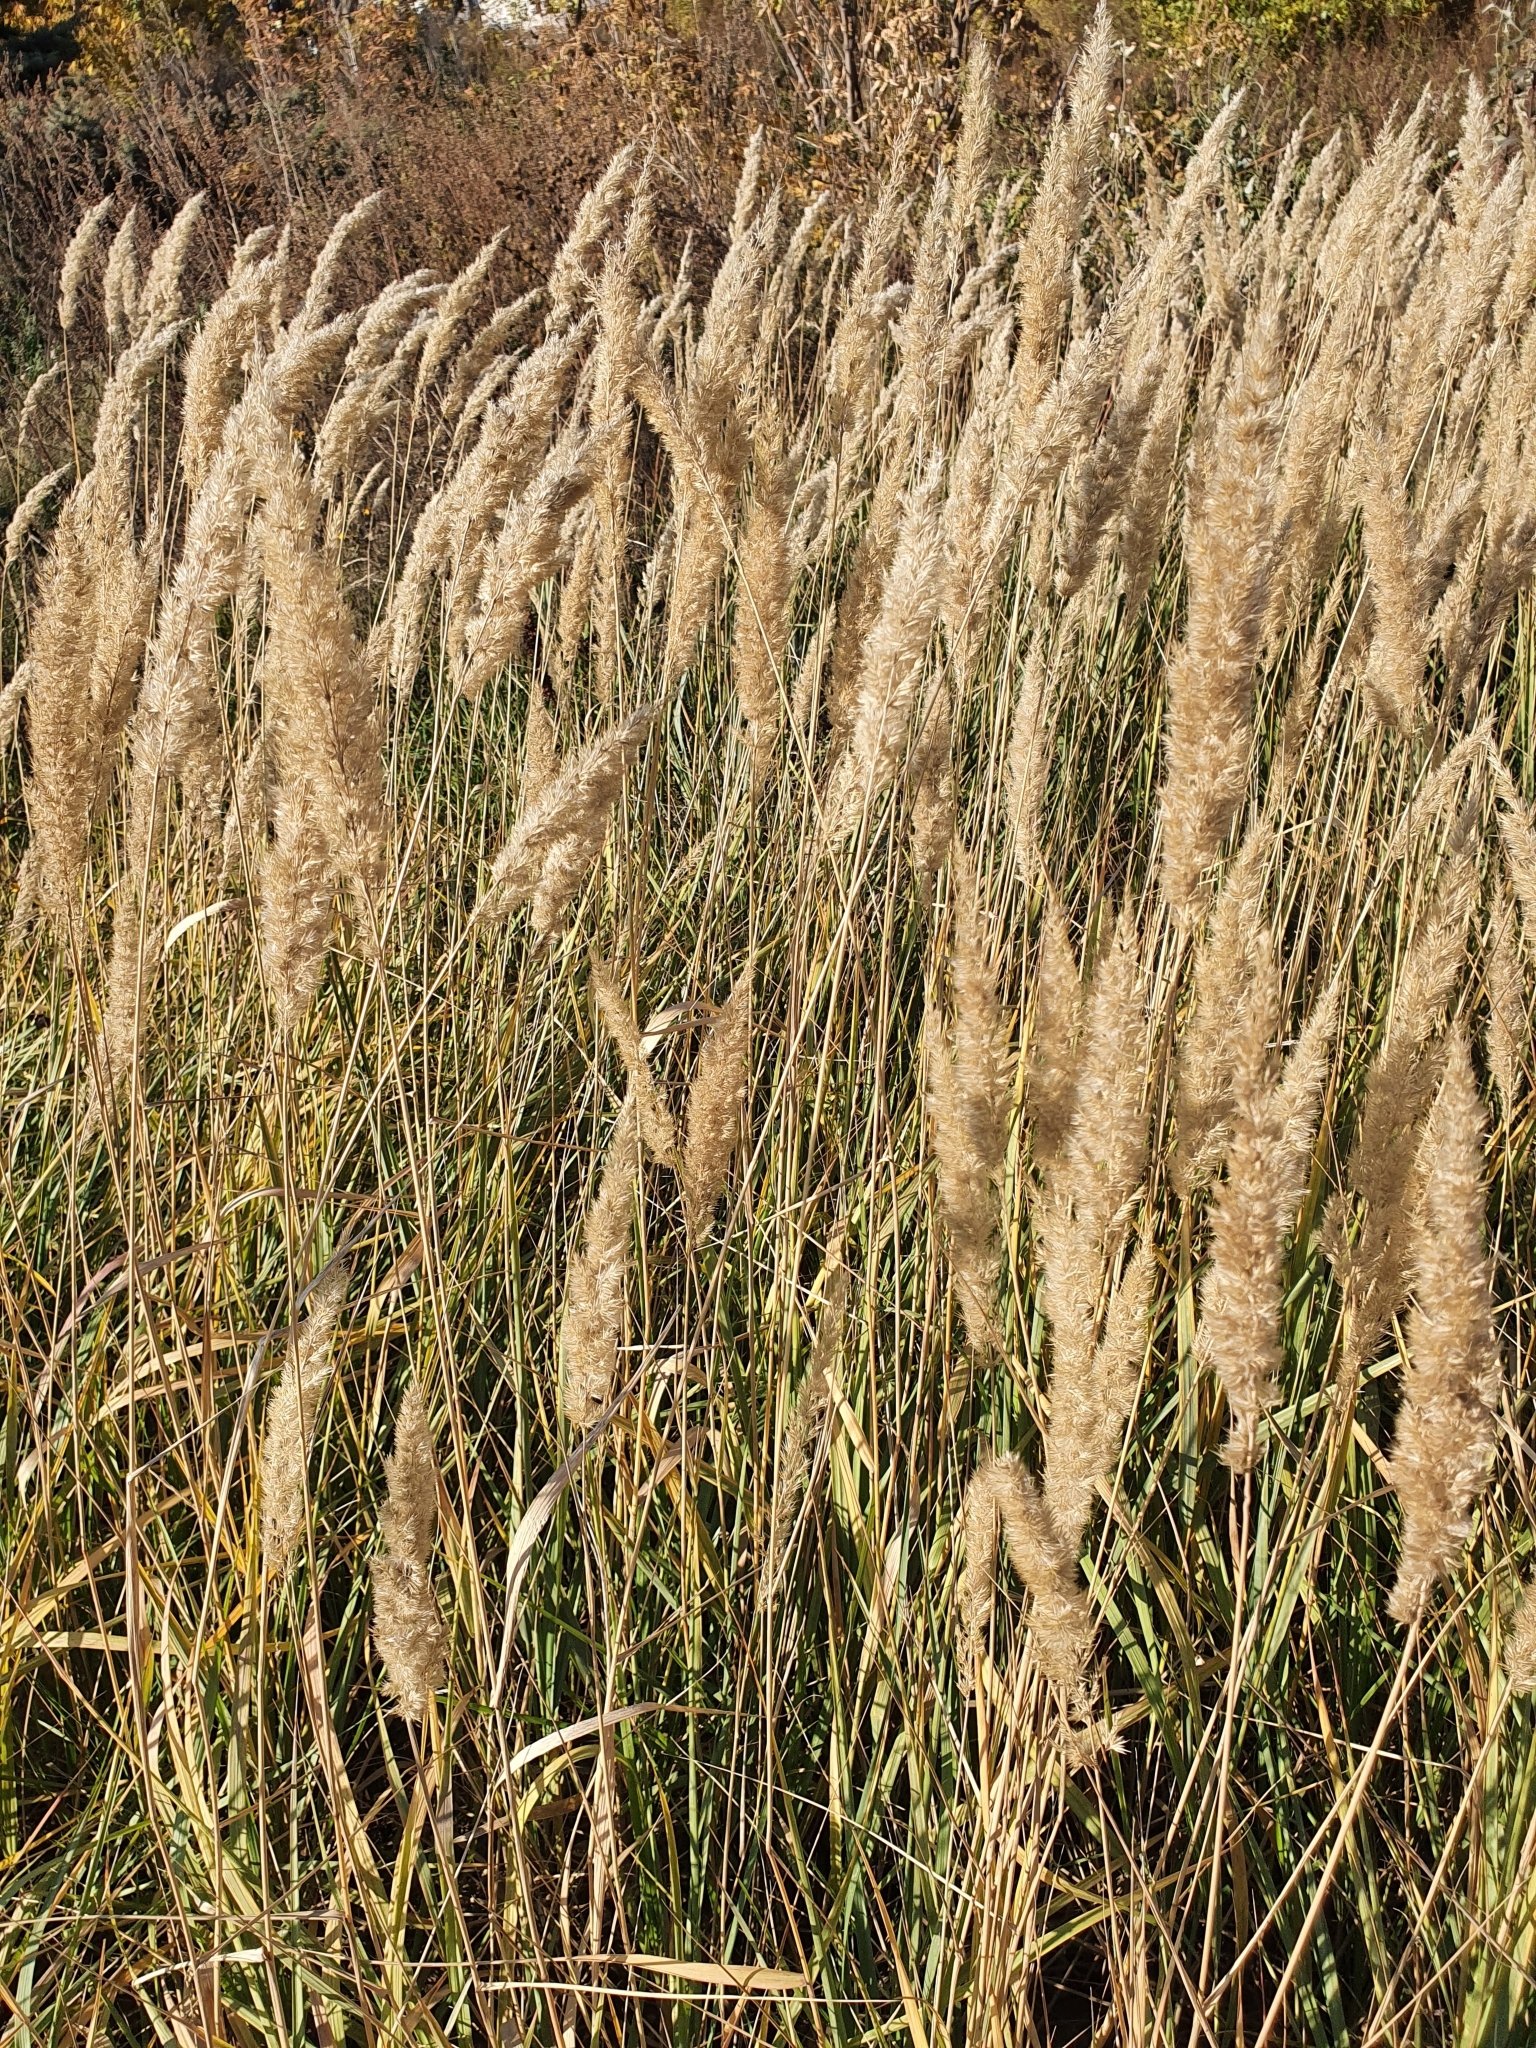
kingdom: Plantae
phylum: Tracheophyta
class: Liliopsida
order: Poales
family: Poaceae
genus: Calamagrostis
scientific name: Calamagrostis epigejos
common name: Wood small-reed
